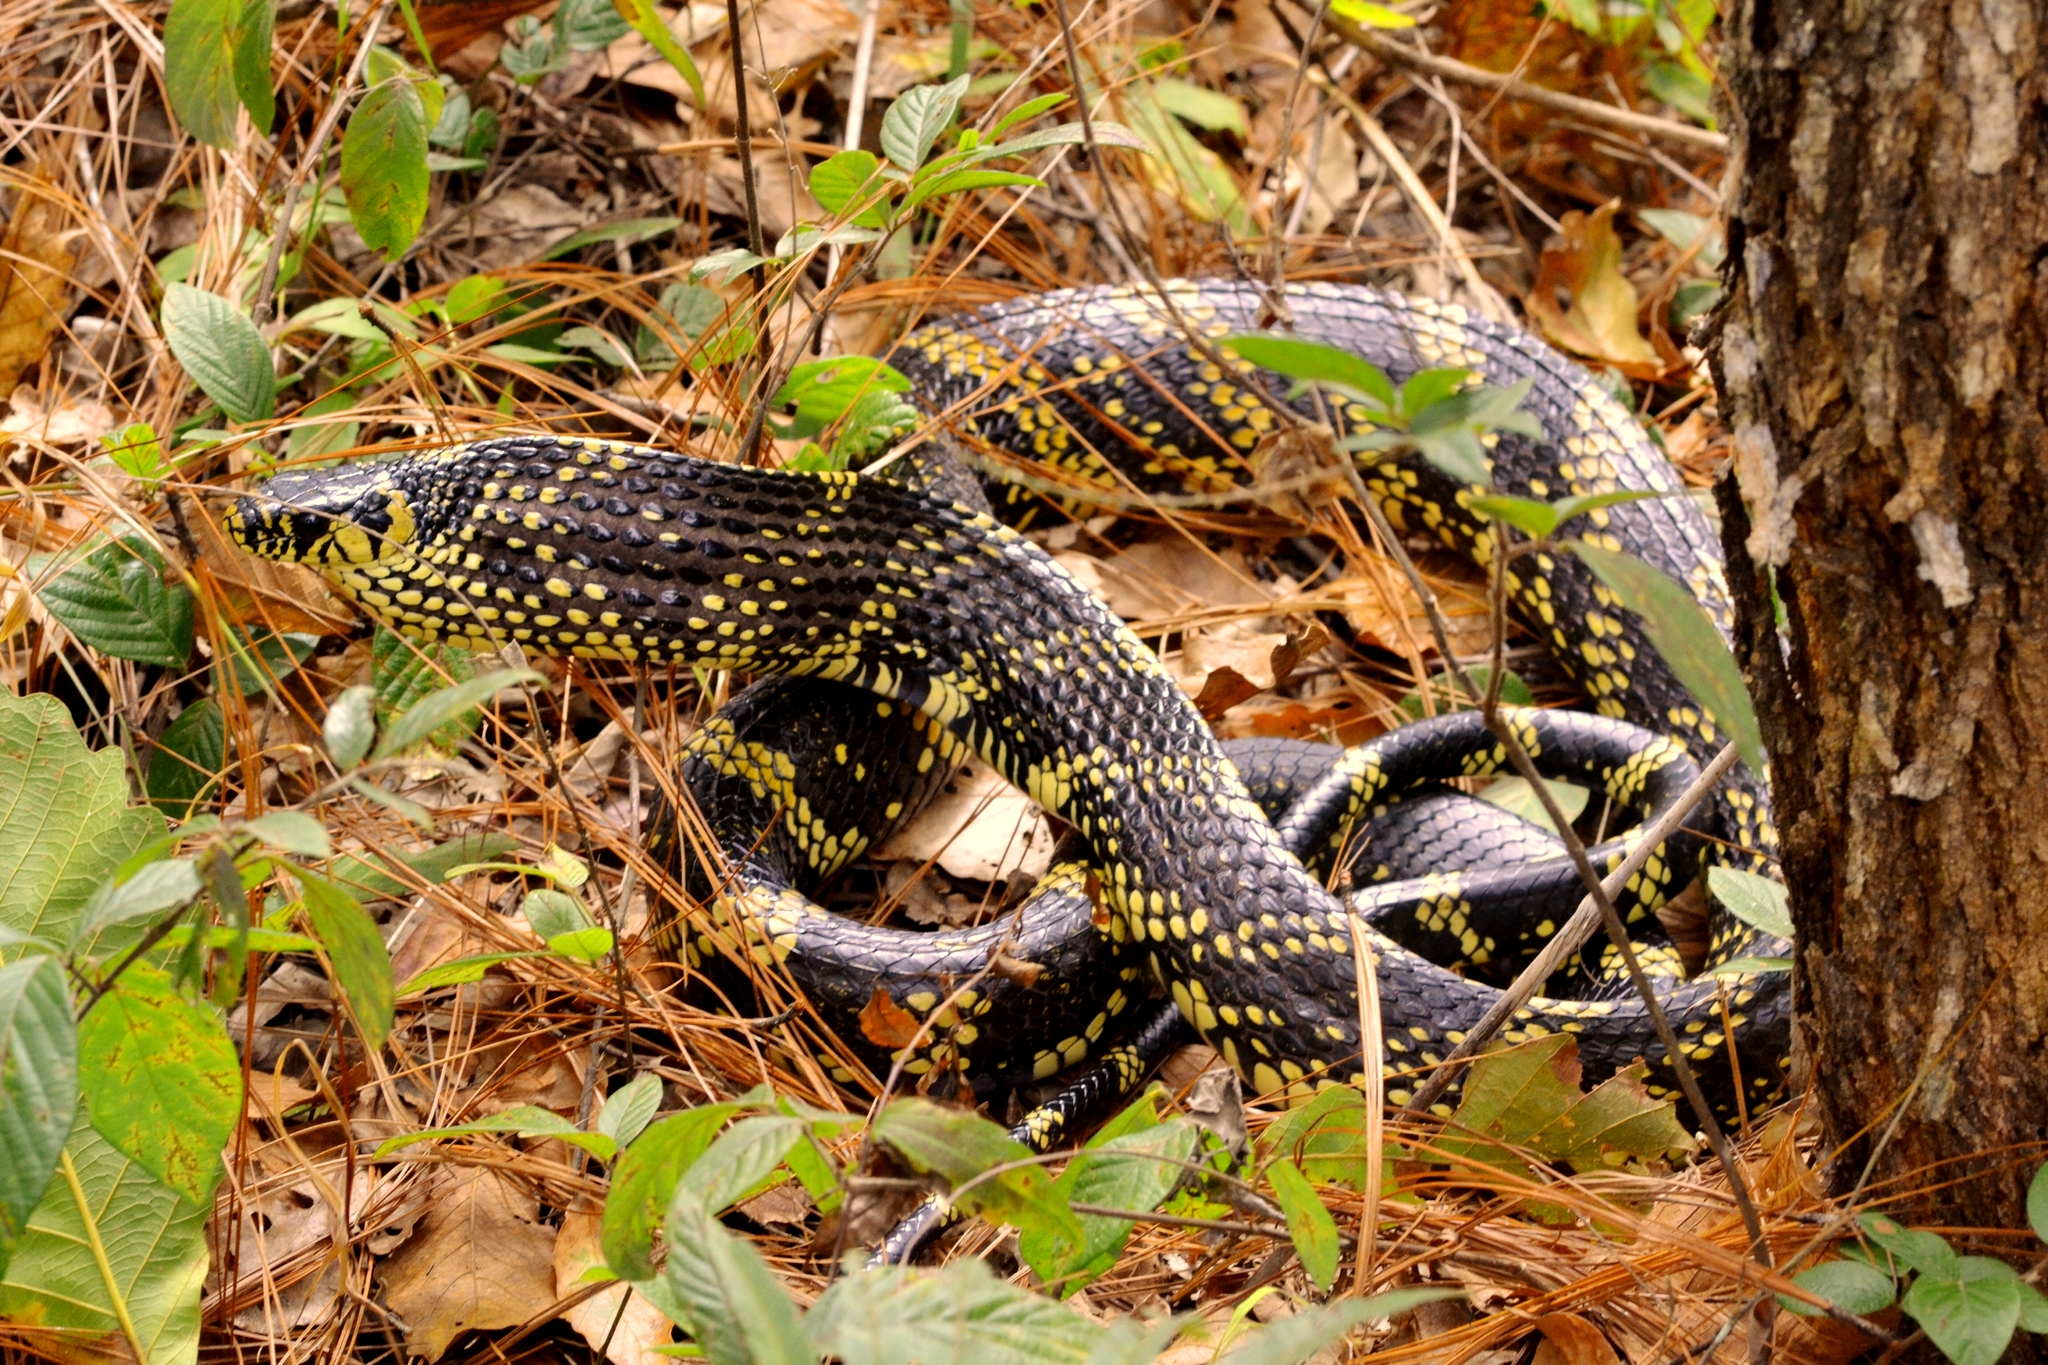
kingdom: Animalia
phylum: Chordata
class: Squamata
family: Colubridae
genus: Spilotes
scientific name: Spilotes pullatus
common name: Chicken snake
